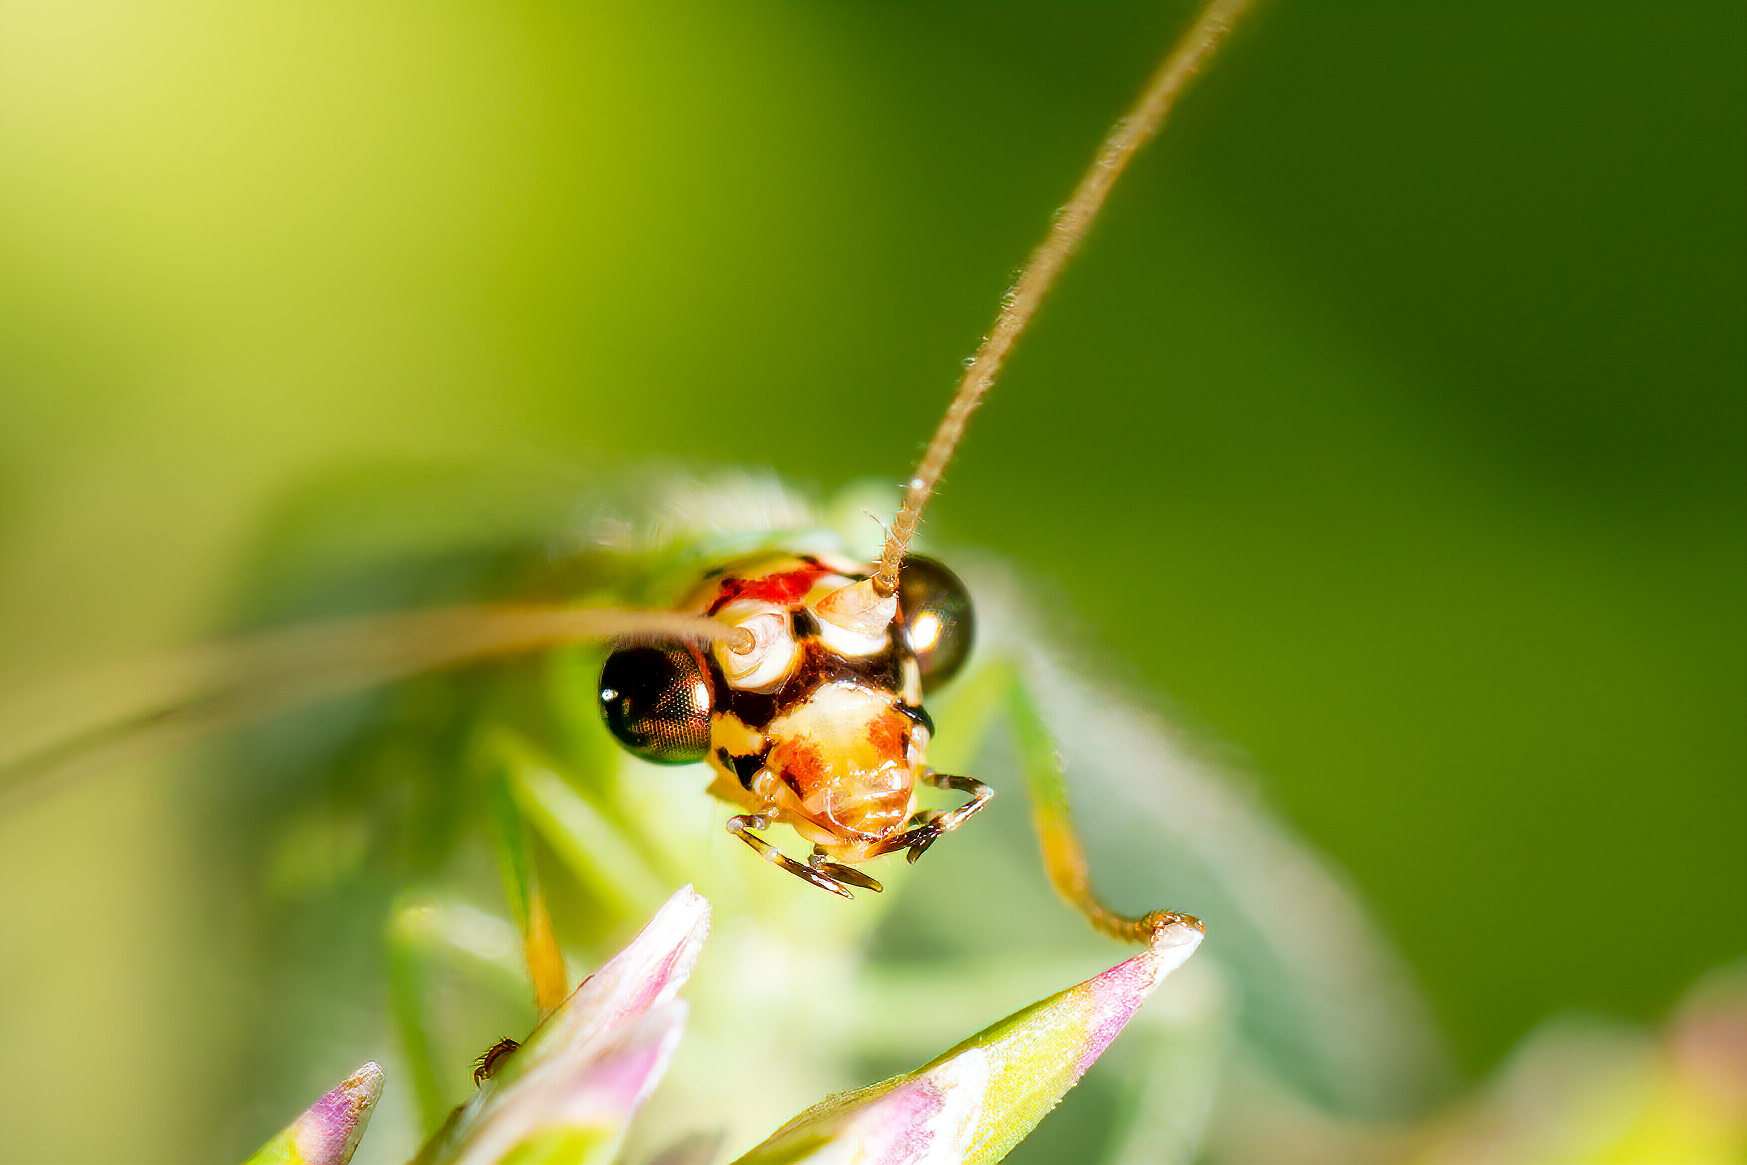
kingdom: Animalia
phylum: Arthropoda
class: Insecta
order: Neuroptera
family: Chrysopidae
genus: Chrysopa
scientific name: Chrysopa oculata
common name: Golden-eyed lacewing
